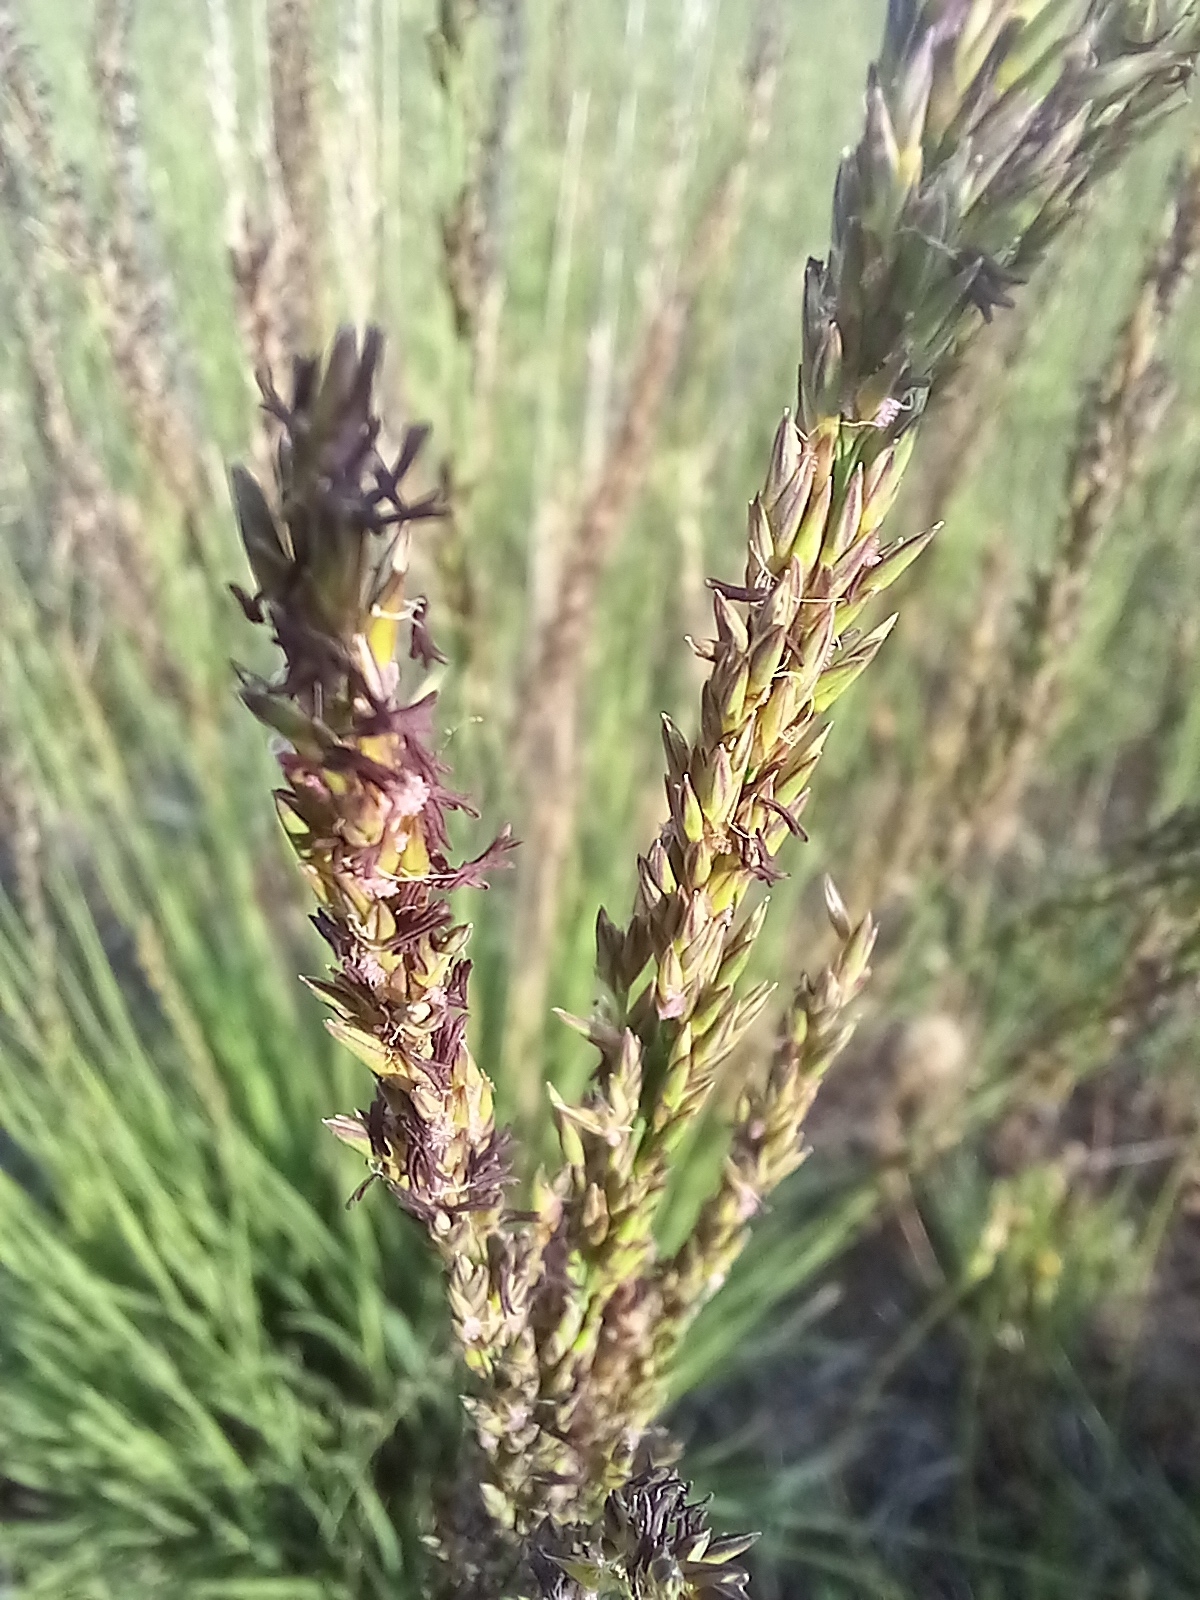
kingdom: Plantae
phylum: Tracheophyta
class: Liliopsida
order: Poales
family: Poaceae
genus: Molinia
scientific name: Molinia caerulea
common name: Purple moor-grass
